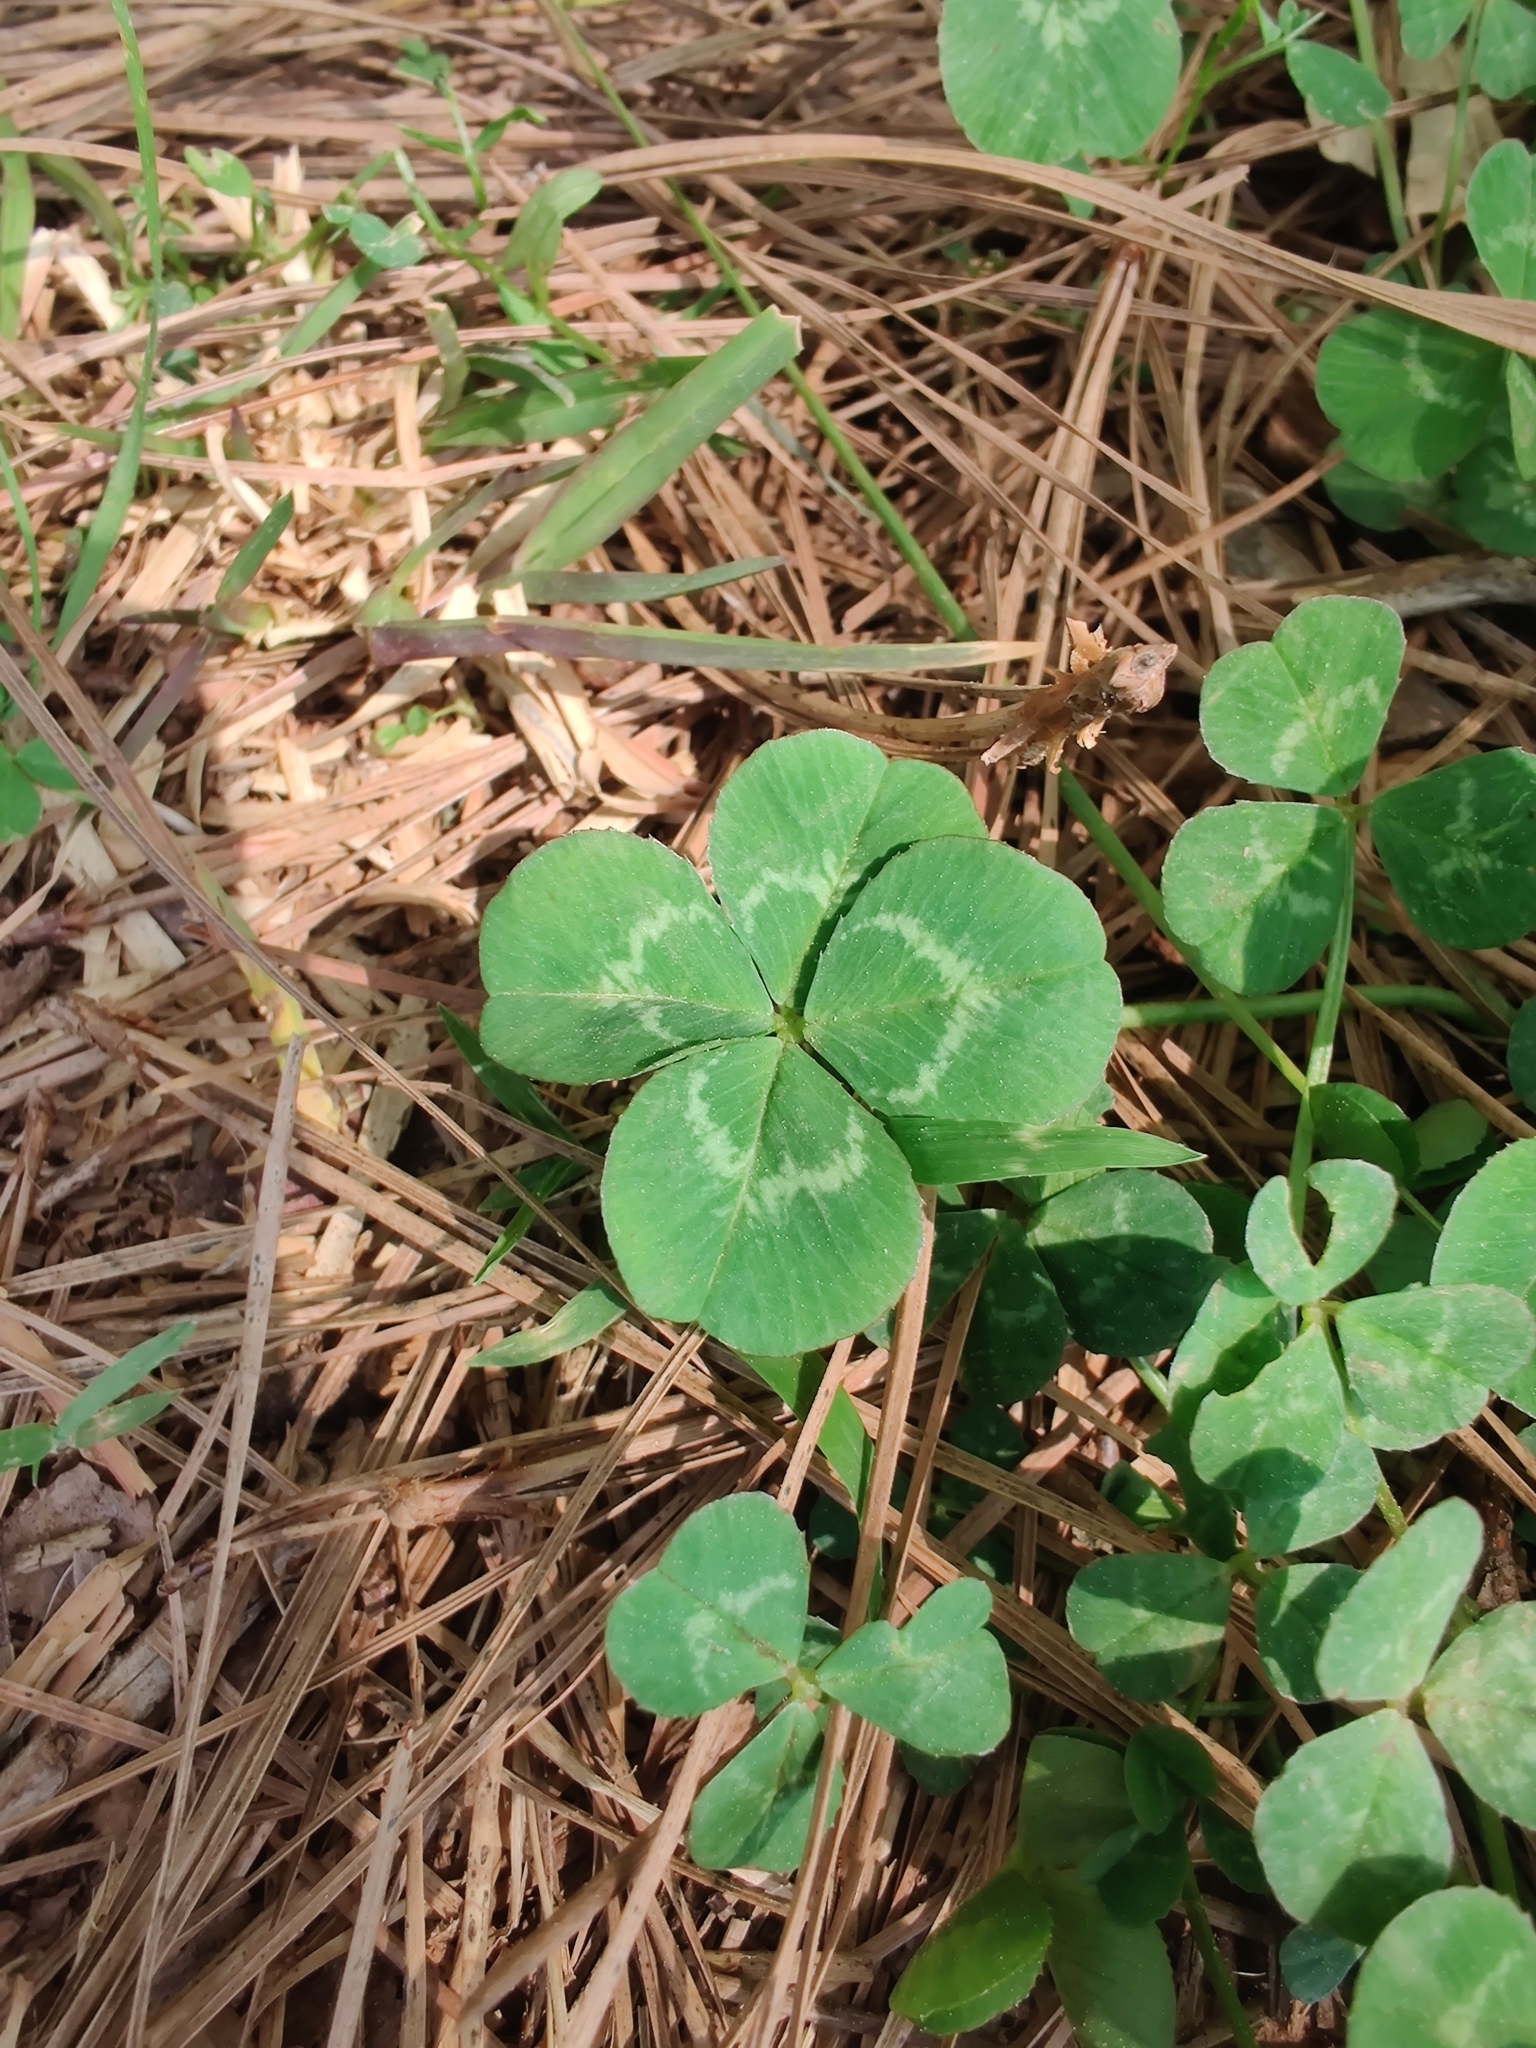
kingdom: Plantae
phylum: Tracheophyta
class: Magnoliopsida
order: Fabales
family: Fabaceae
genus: Trifolium
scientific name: Trifolium repens
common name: White clover
